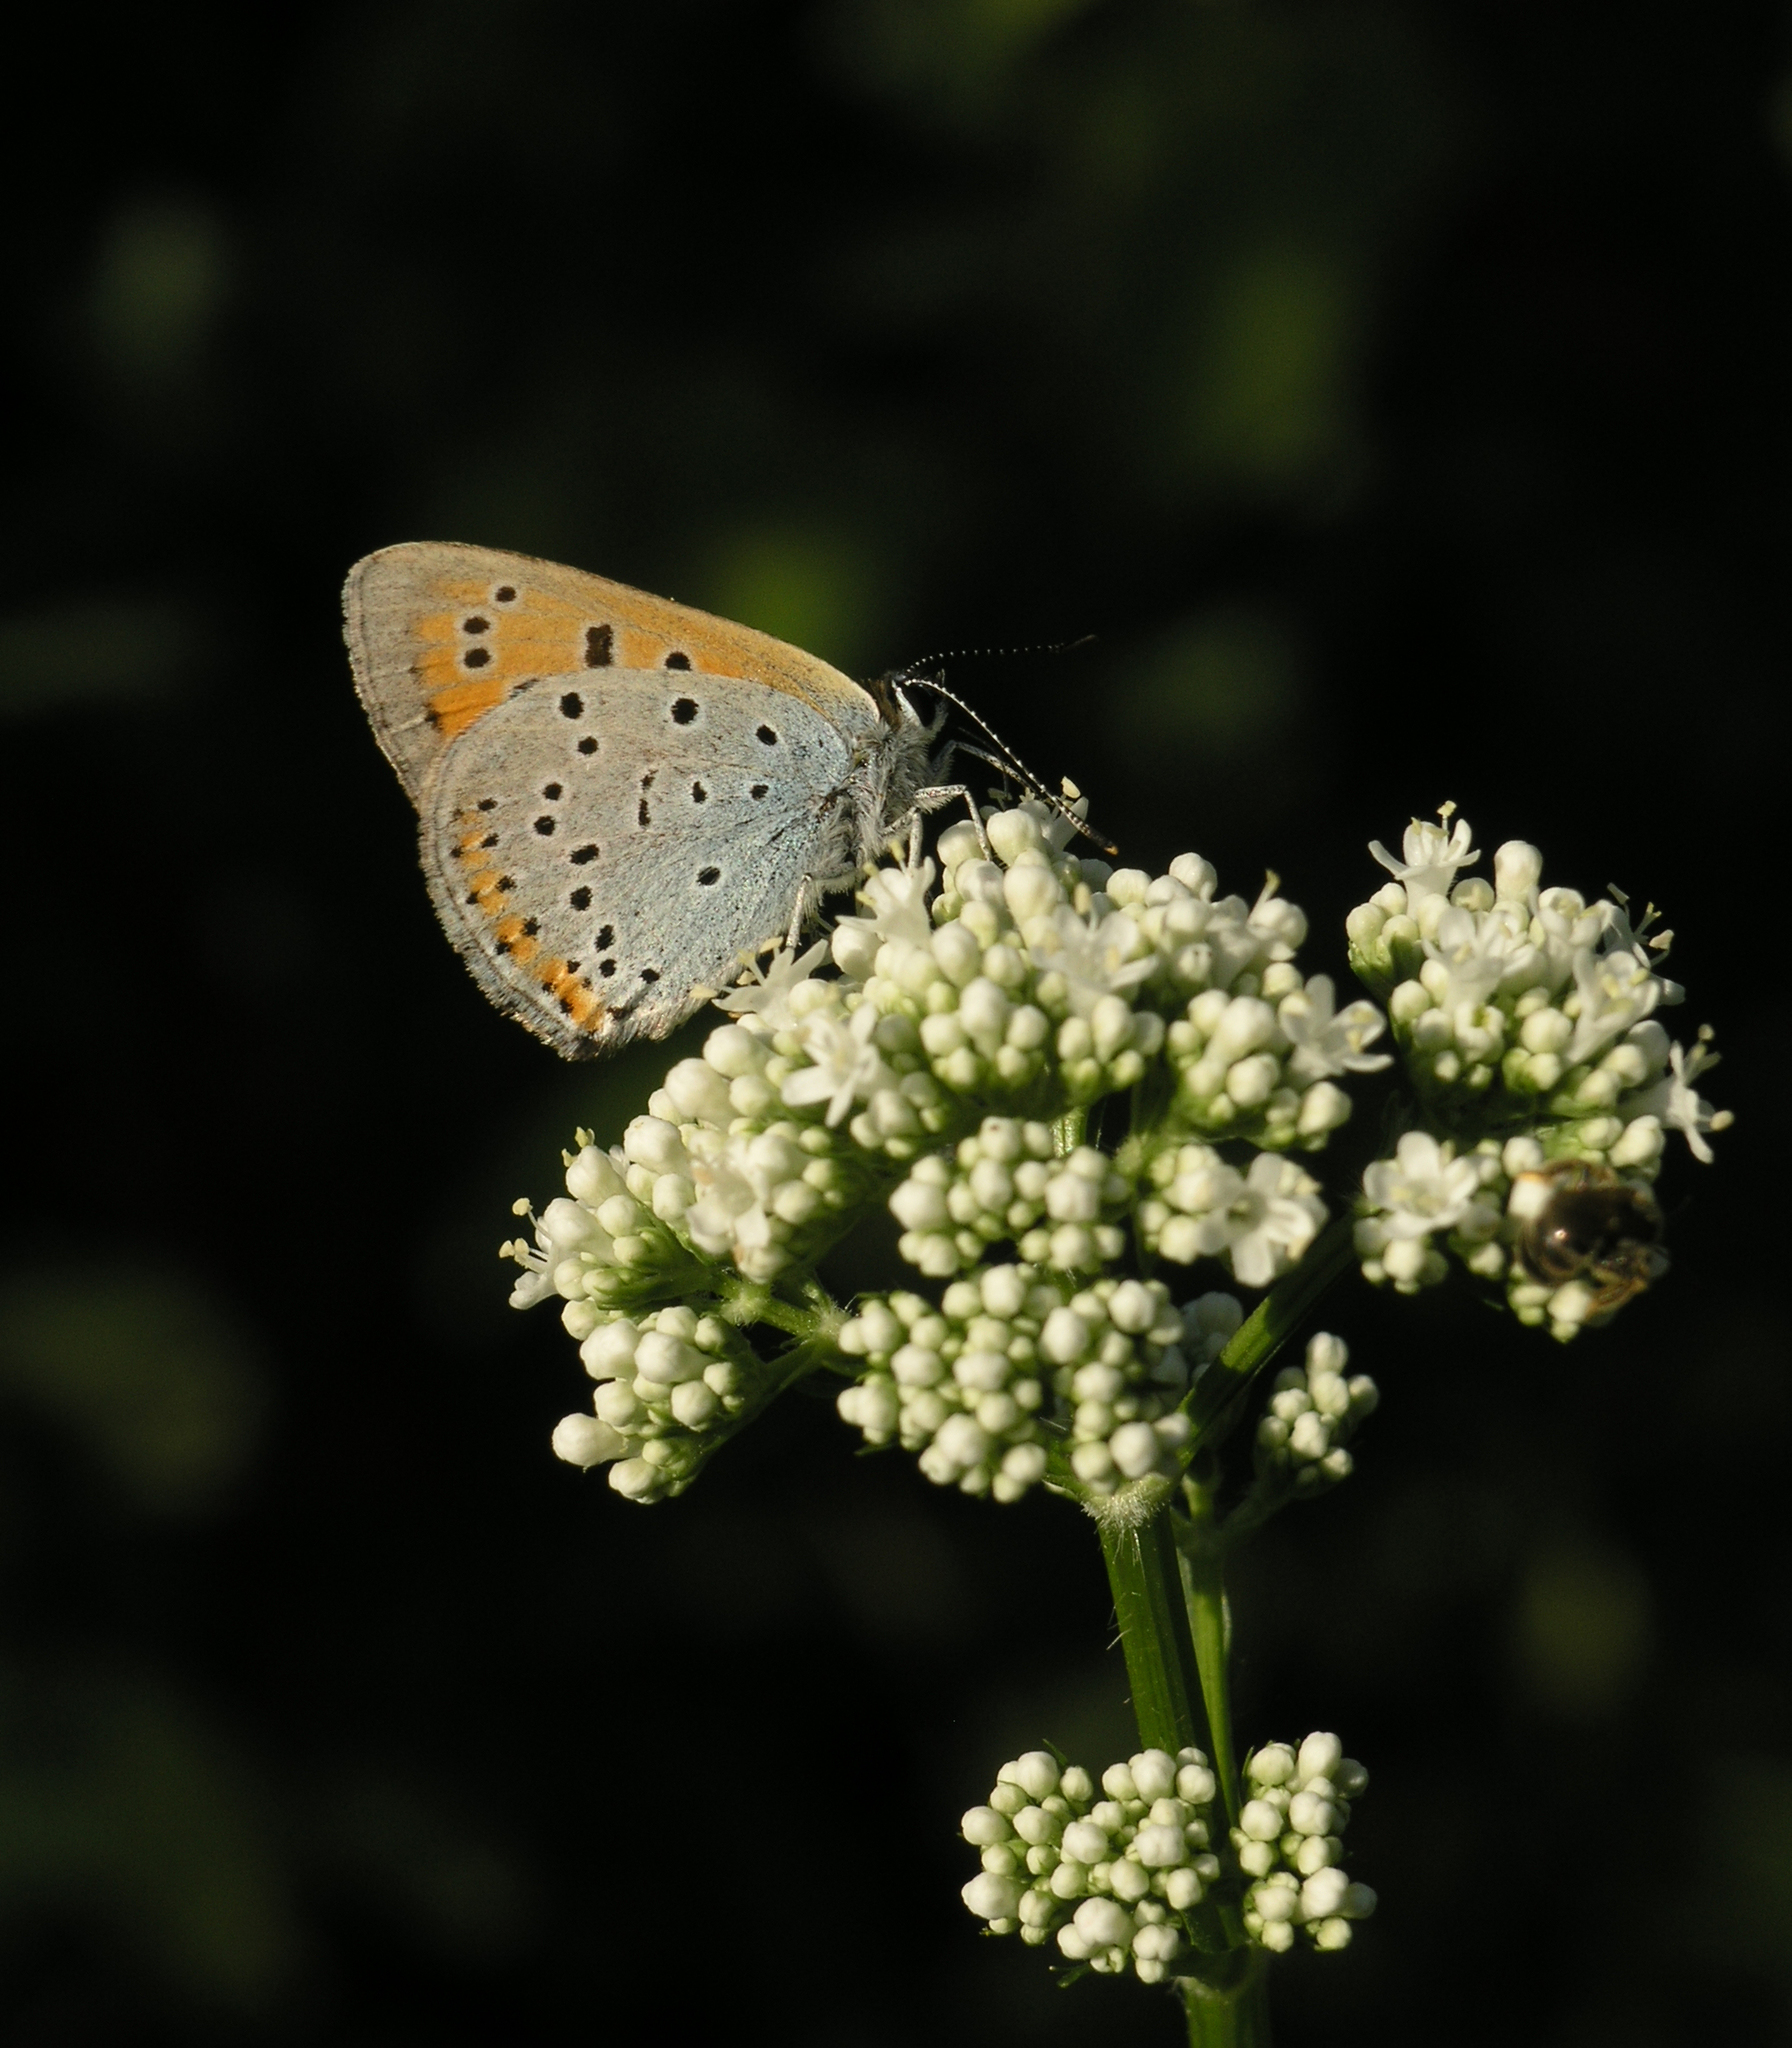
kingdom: Animalia
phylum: Arthropoda
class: Insecta
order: Lepidoptera
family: Lycaenidae
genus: Lycaena
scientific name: Lycaena dispar
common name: Large copper
